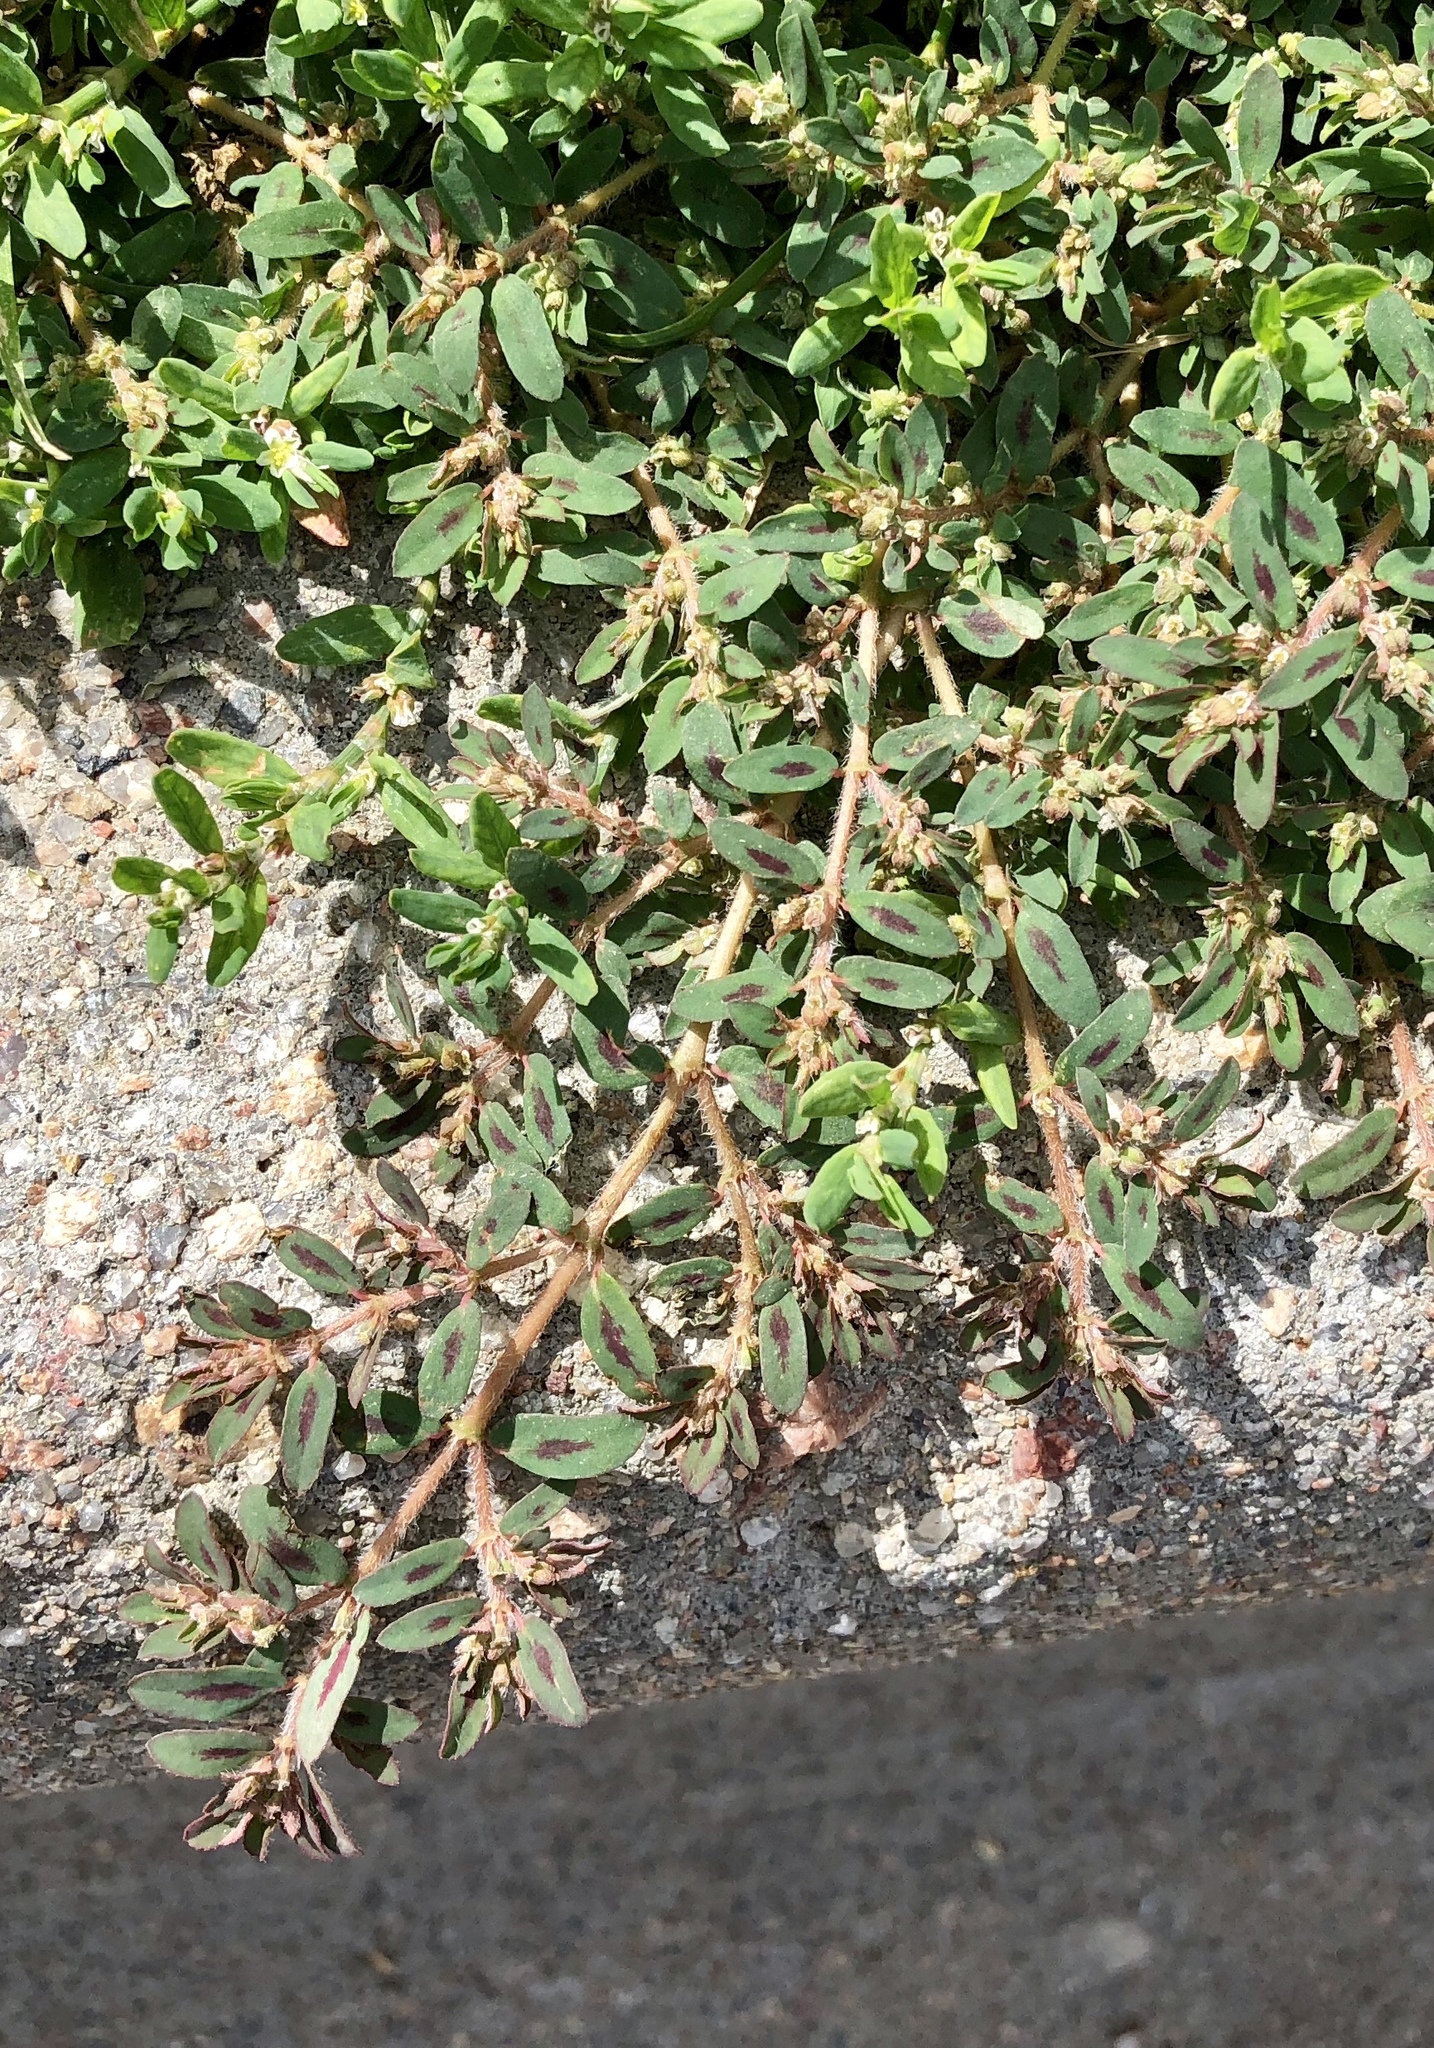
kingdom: Plantae
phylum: Tracheophyta
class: Magnoliopsida
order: Malpighiales
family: Euphorbiaceae
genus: Euphorbia
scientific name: Euphorbia maculata
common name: Spotted spurge
